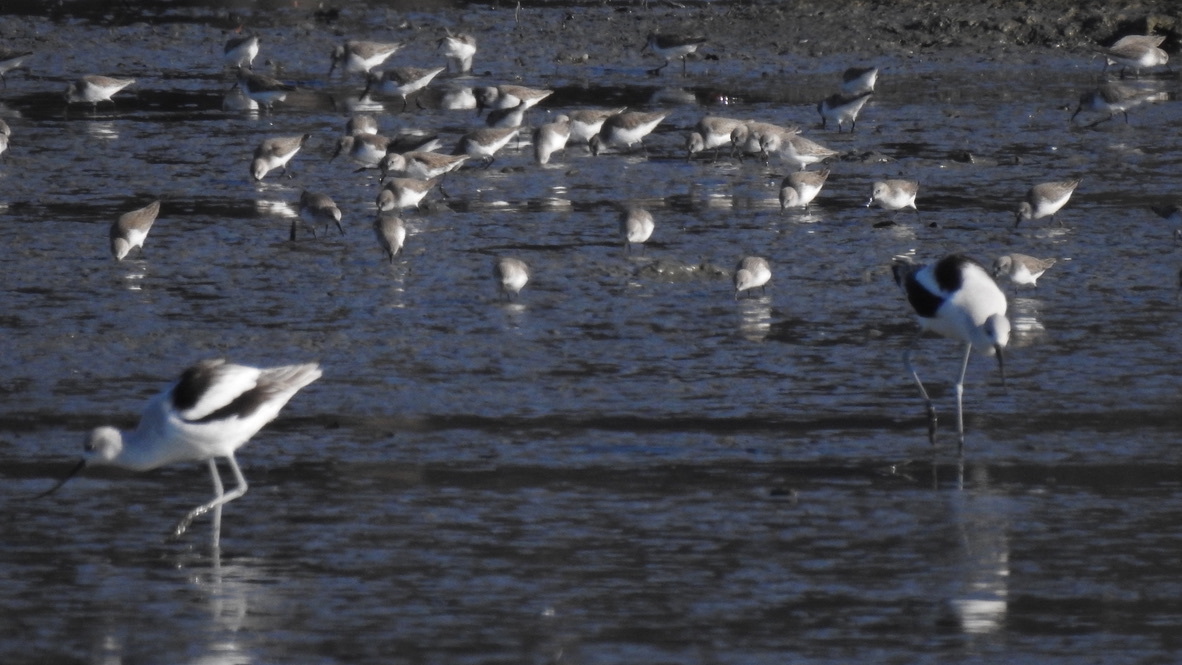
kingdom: Animalia
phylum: Chordata
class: Aves
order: Charadriiformes
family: Recurvirostridae
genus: Recurvirostra
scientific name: Recurvirostra americana
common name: American avocet
